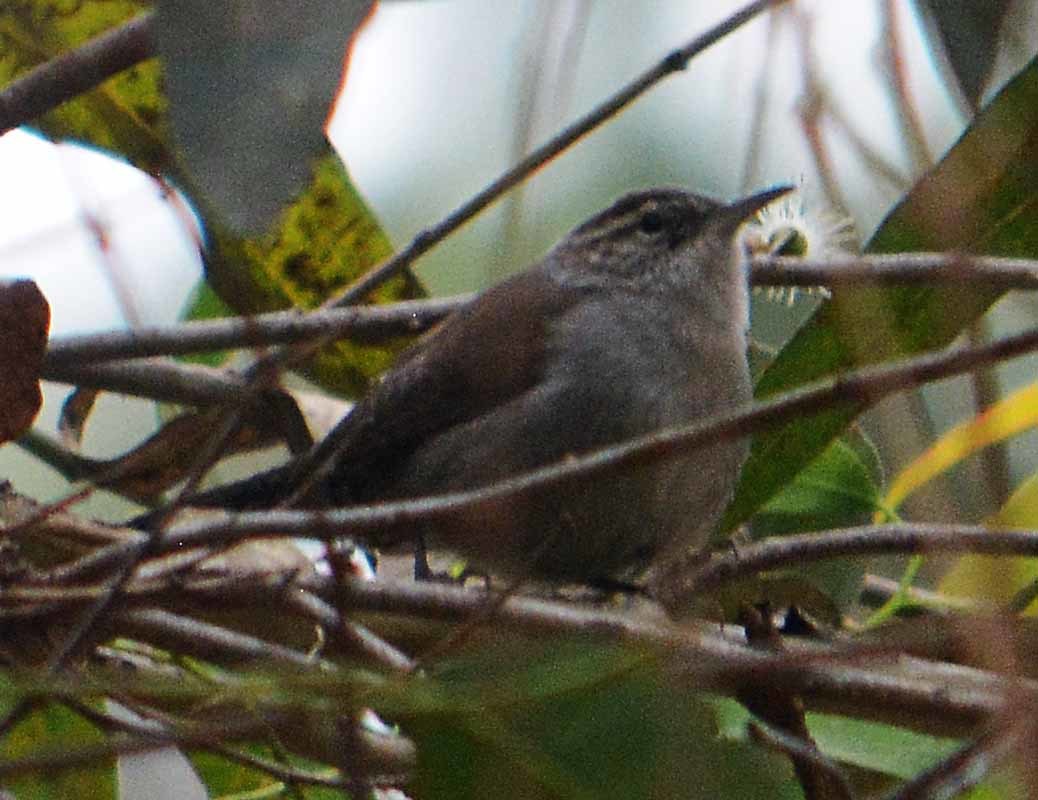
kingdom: Animalia
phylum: Chordata
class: Aves
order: Passeriformes
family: Troglodytidae
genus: Thryomanes
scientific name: Thryomanes bewickii
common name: Bewick's wren
